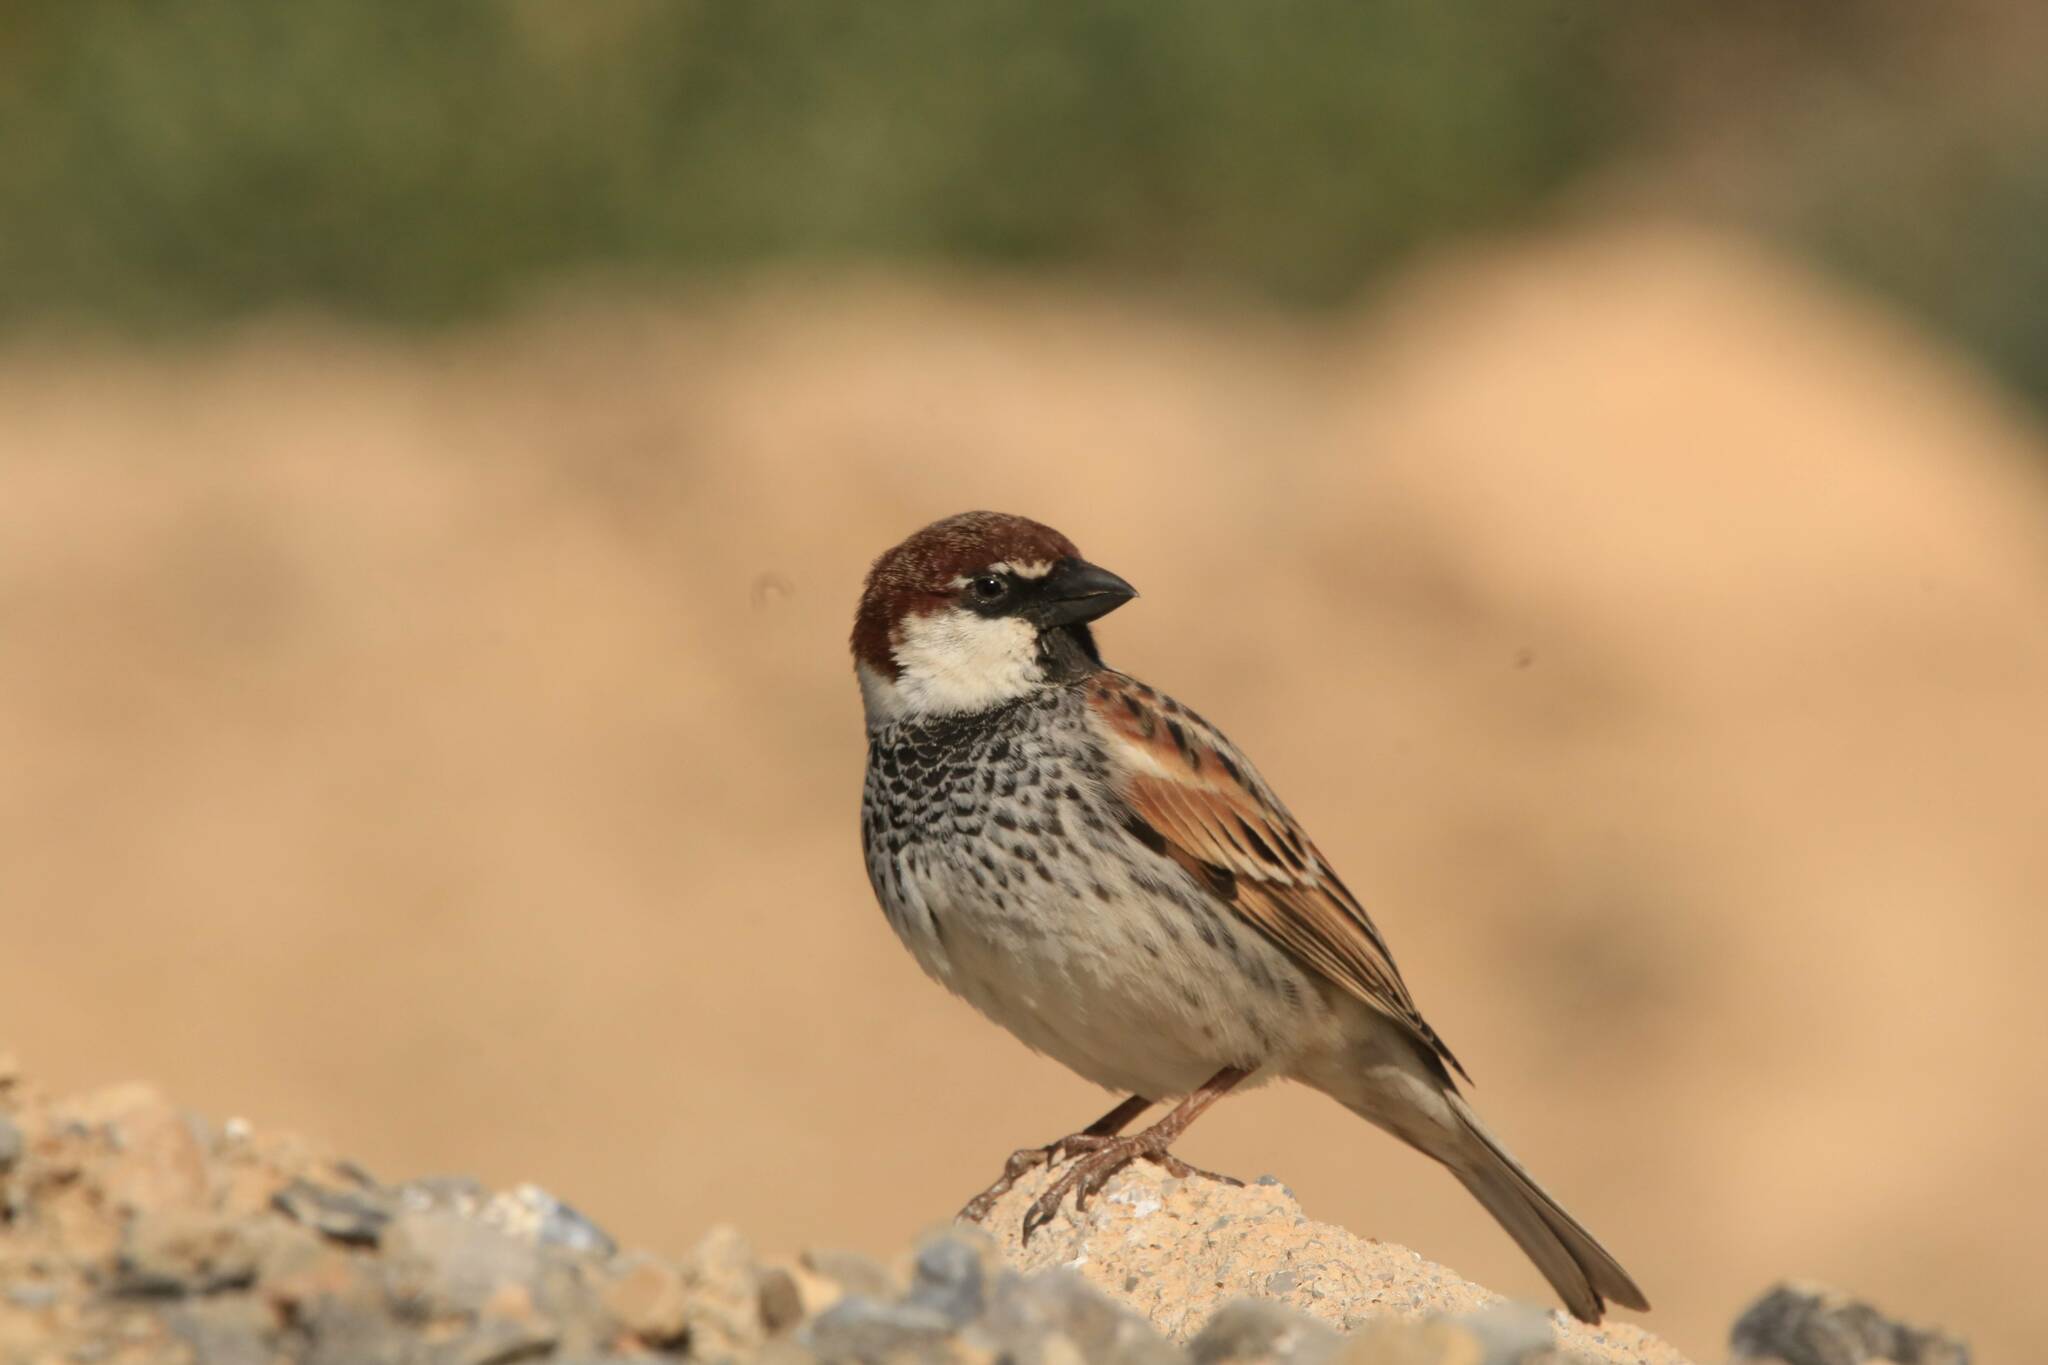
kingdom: Animalia
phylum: Chordata
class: Aves
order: Passeriformes
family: Passeridae
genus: Passer
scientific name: Passer hispaniolensis
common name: Spanish sparrow
